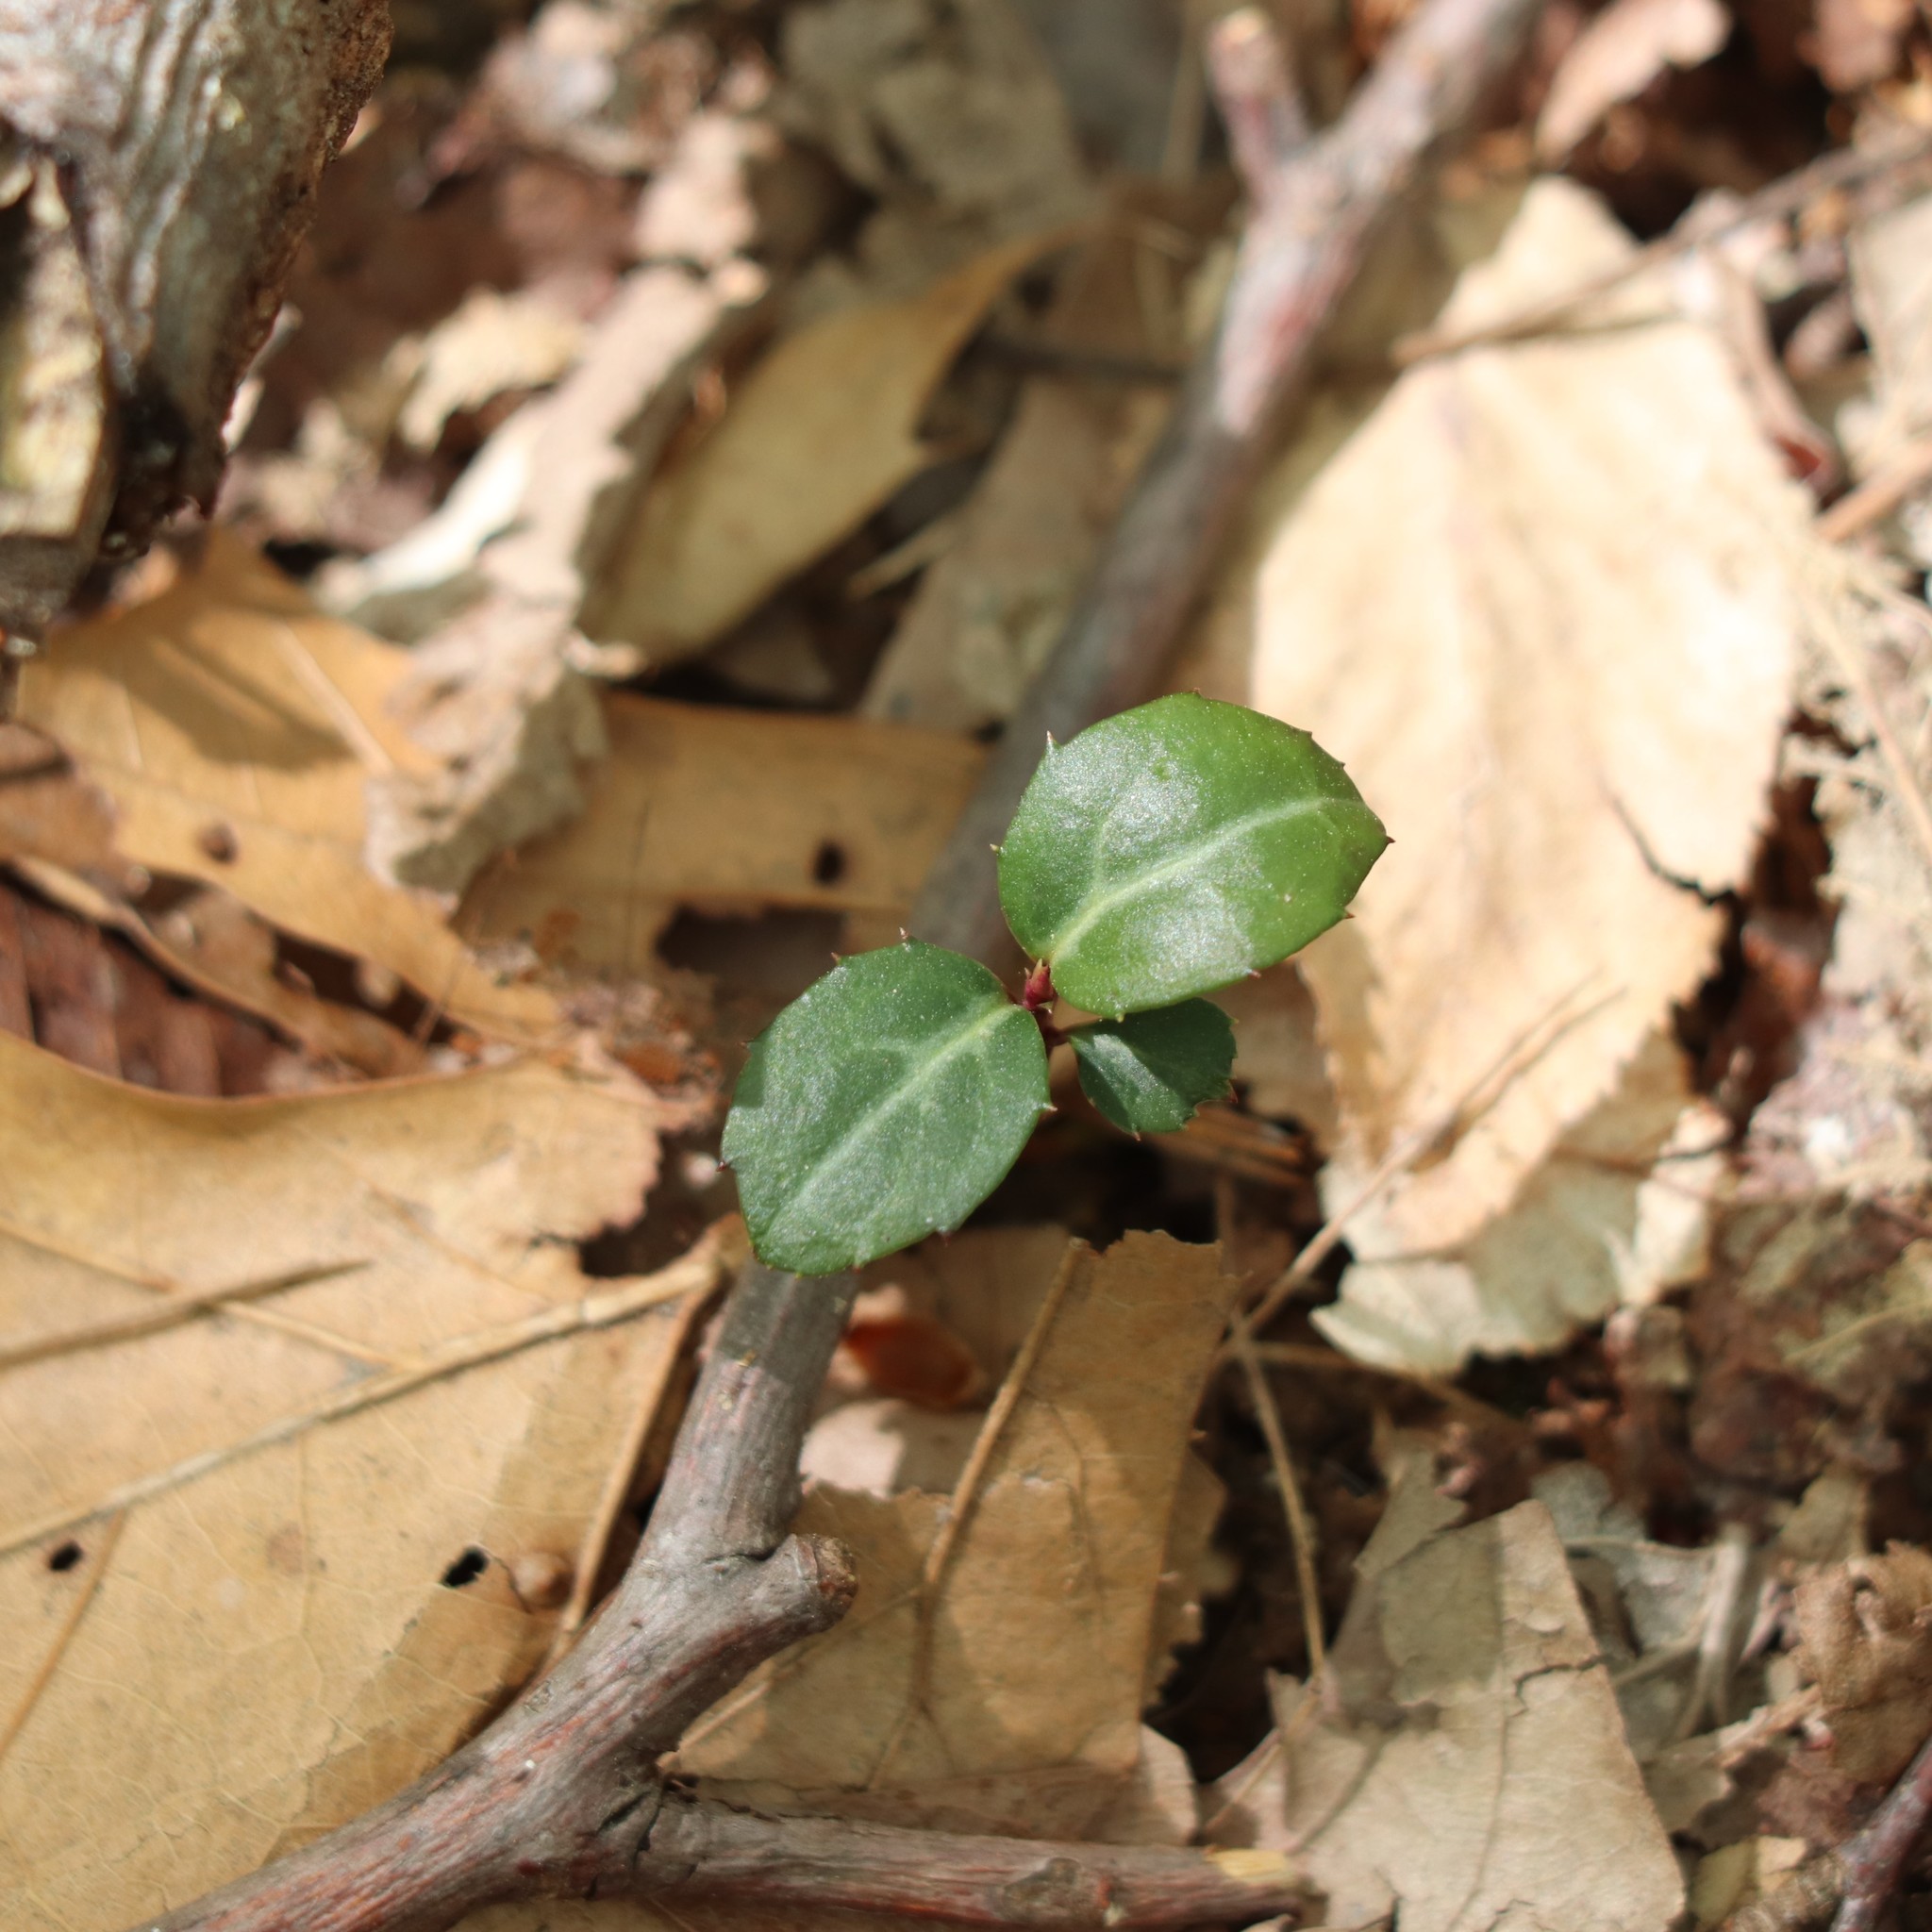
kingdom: Plantae
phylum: Tracheophyta
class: Magnoliopsida
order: Ericales
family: Ericaceae
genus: Chimaphila
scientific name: Chimaphila maculata
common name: Spotted pipsissewa
